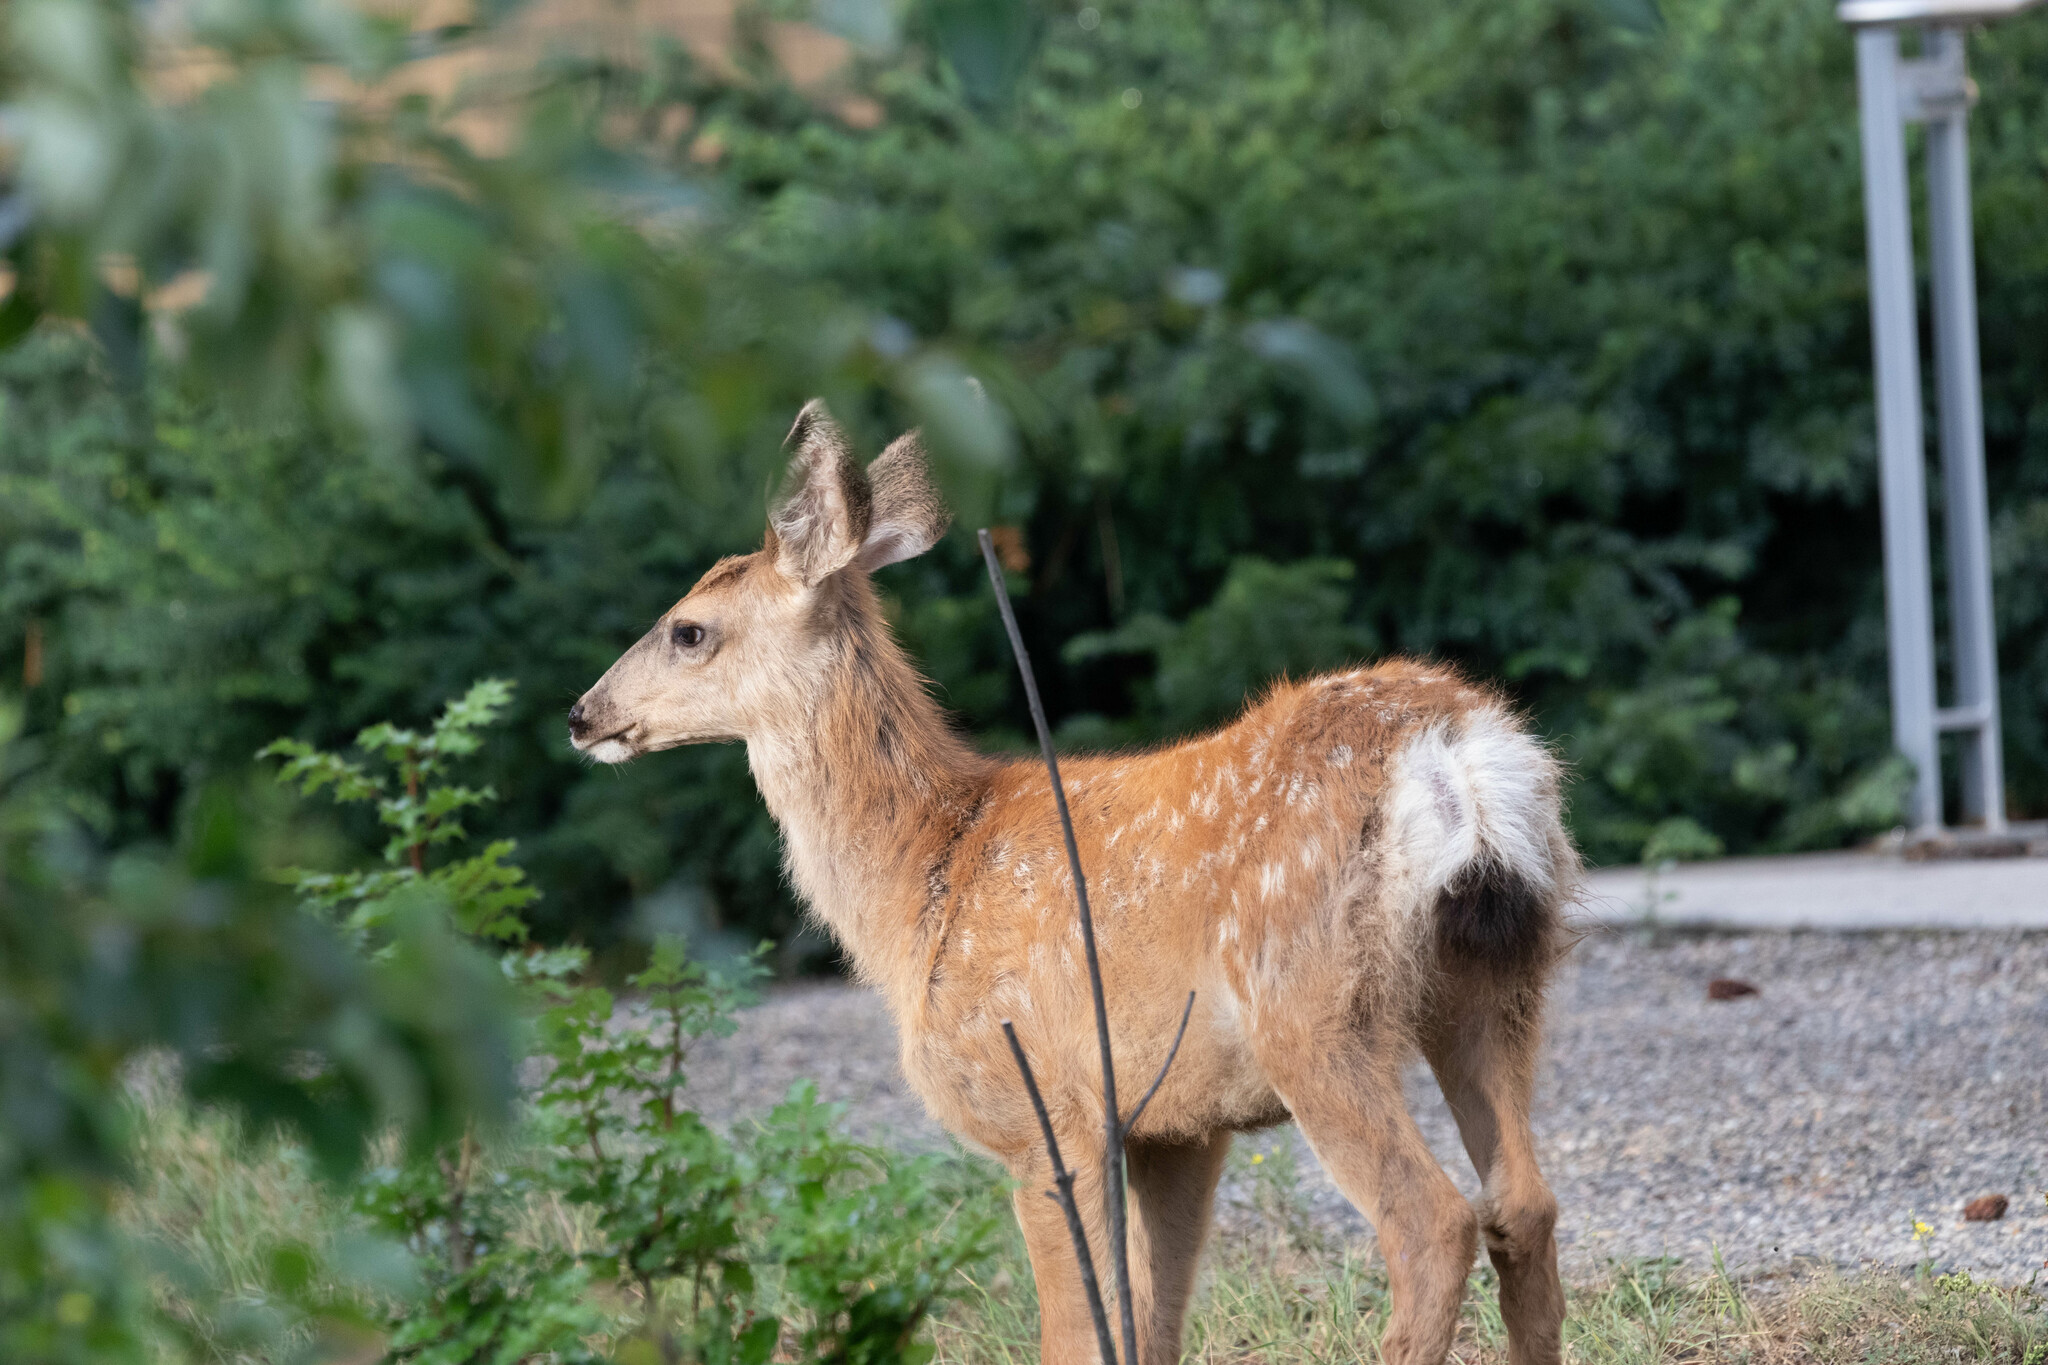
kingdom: Animalia
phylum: Chordata
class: Mammalia
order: Artiodactyla
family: Cervidae
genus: Odocoileus
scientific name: Odocoileus hemionus
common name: Mule deer
